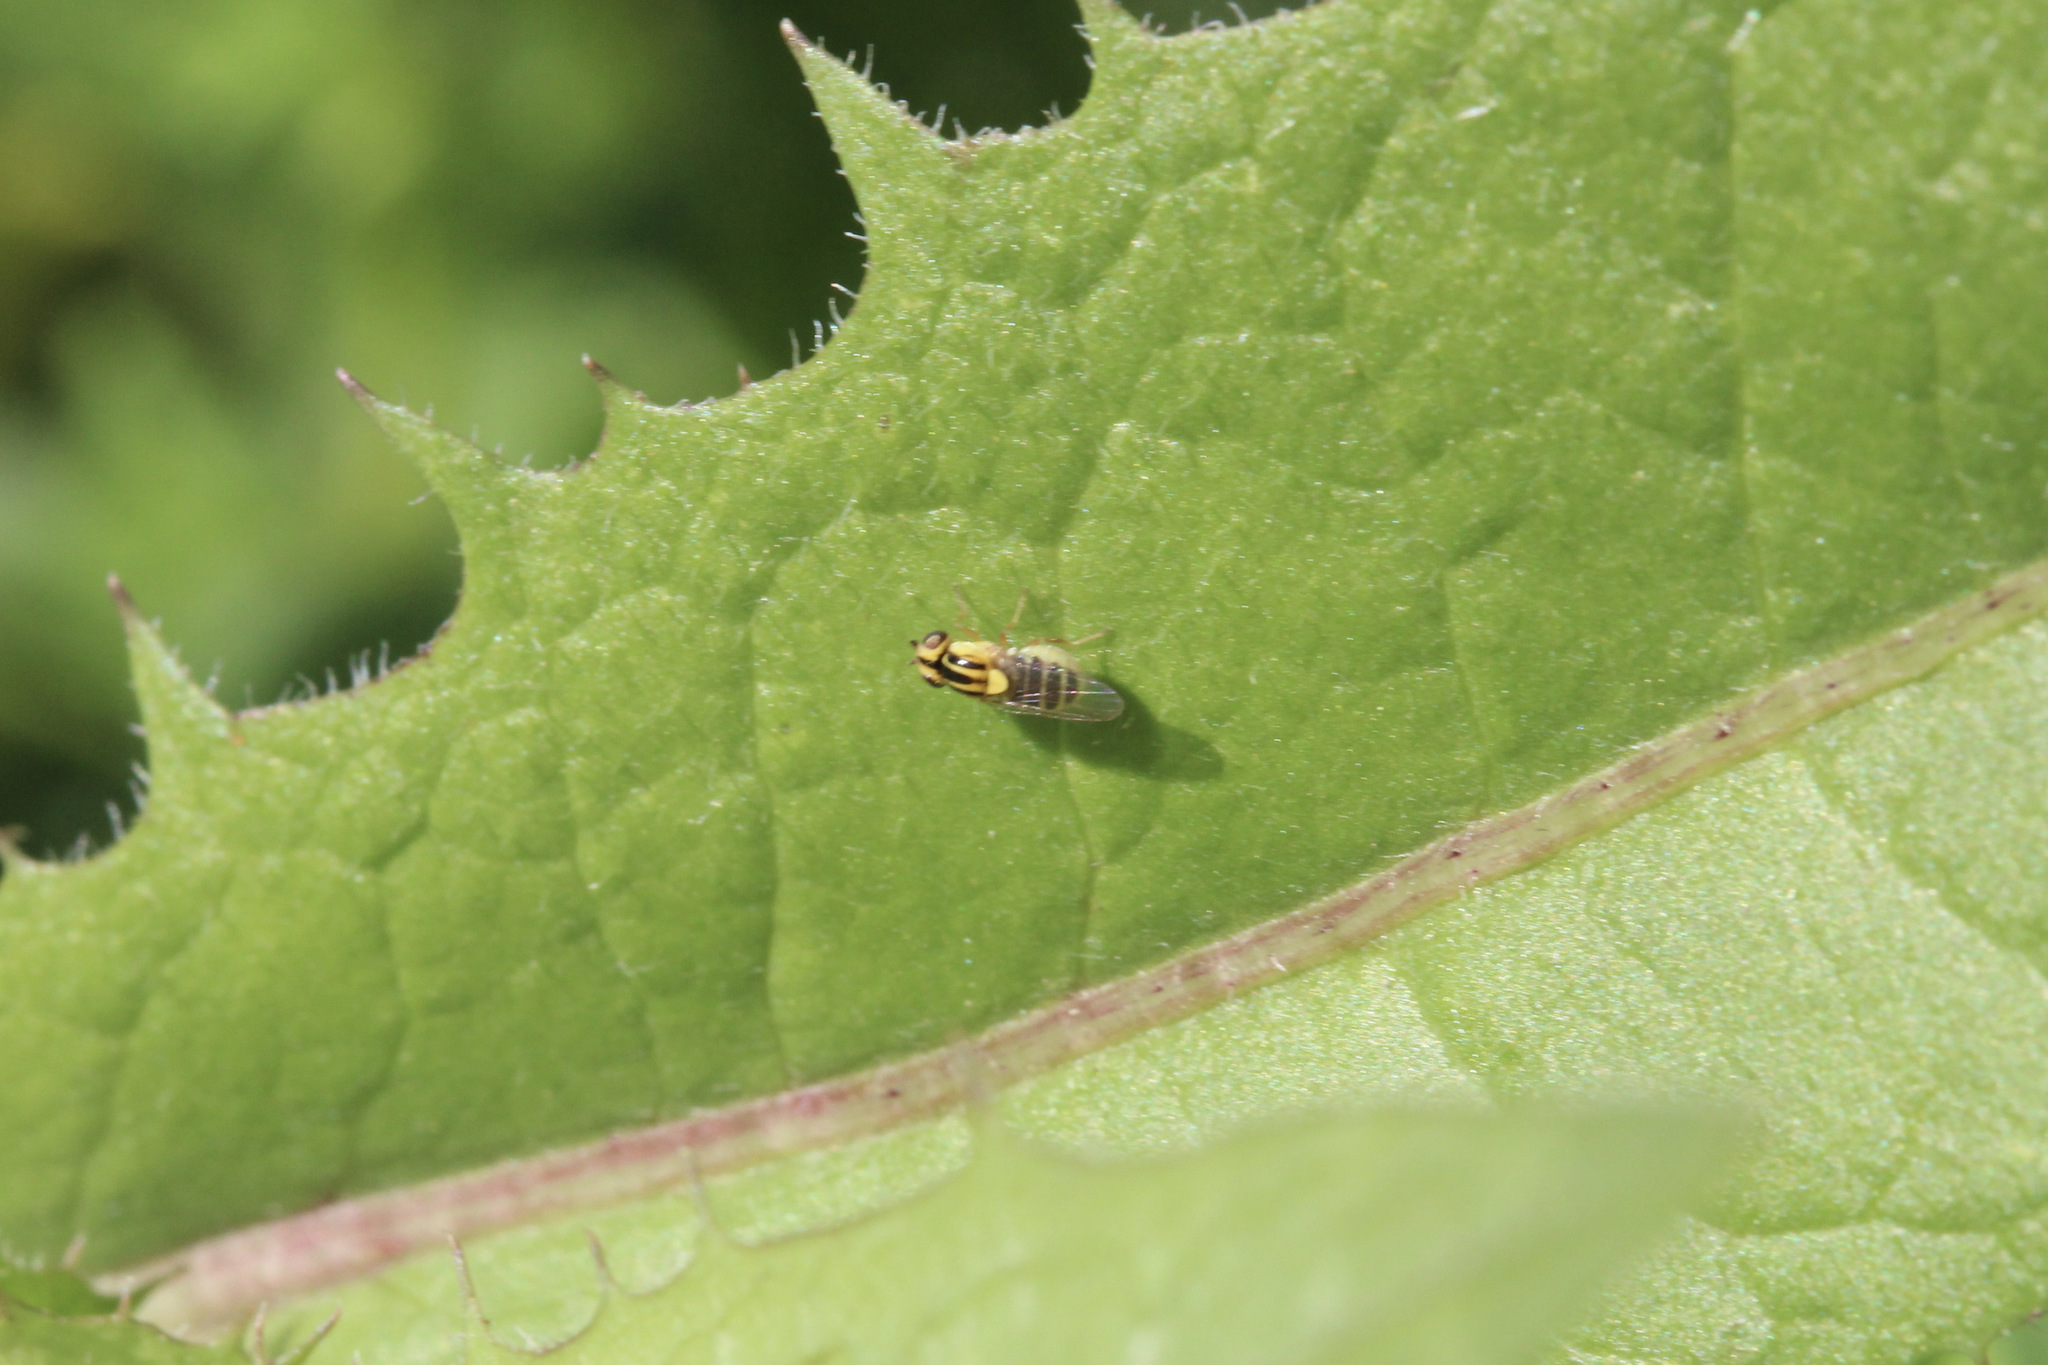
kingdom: Animalia
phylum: Arthropoda
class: Insecta
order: Diptera
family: Chloropidae
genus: Thaumatomyia
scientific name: Thaumatomyia glabra
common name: Chloropid fly
